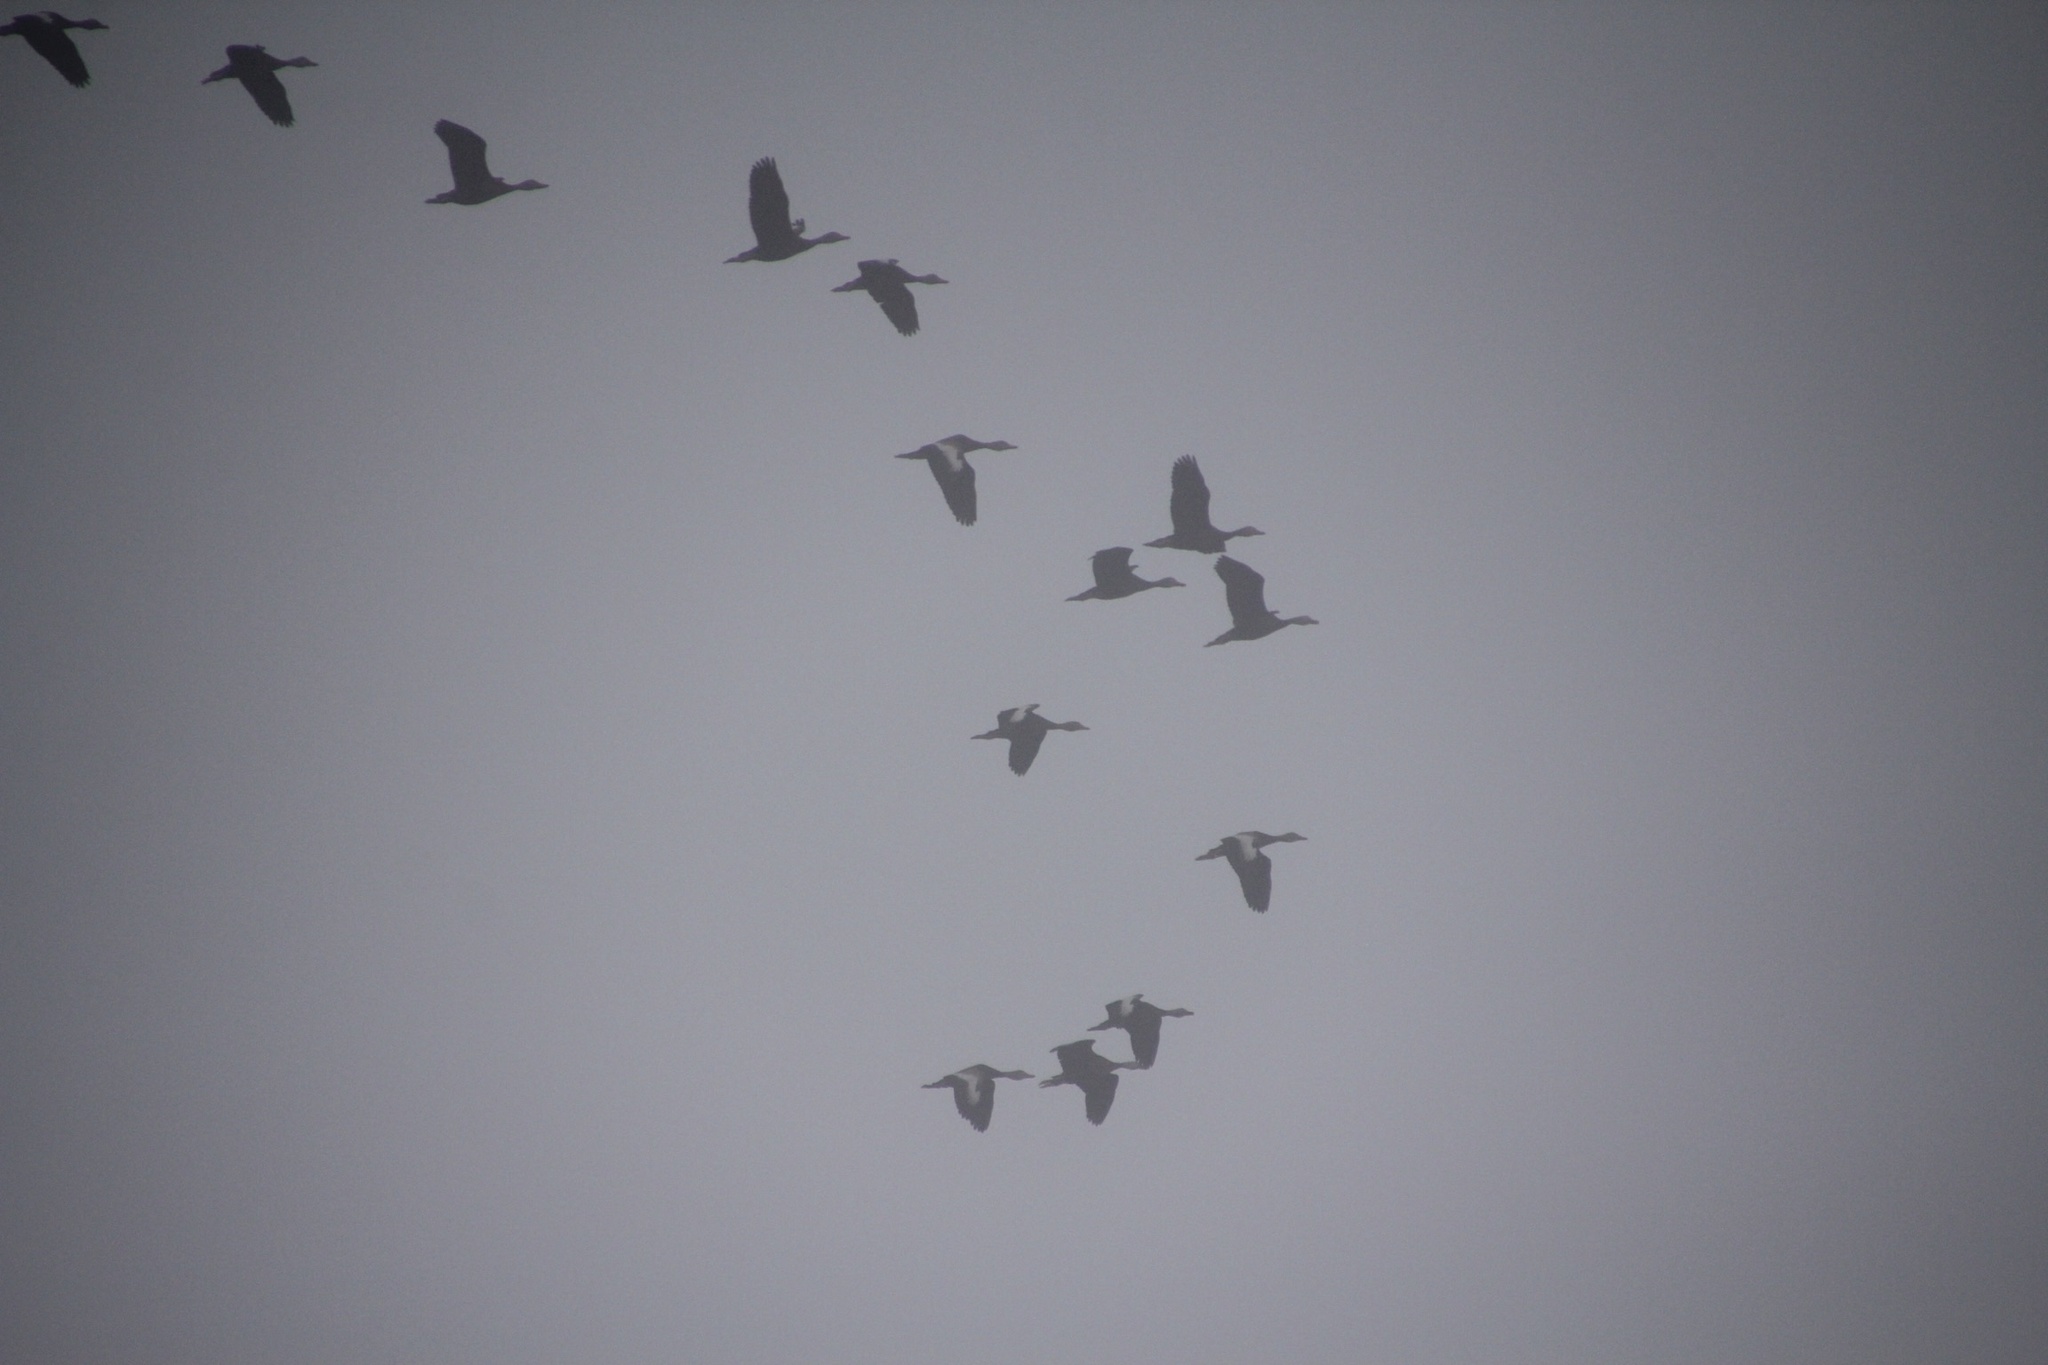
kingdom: Animalia
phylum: Chordata
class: Aves
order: Anseriformes
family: Anatidae
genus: Dendrocygna
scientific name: Dendrocygna autumnalis
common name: Black-bellied whistling duck
